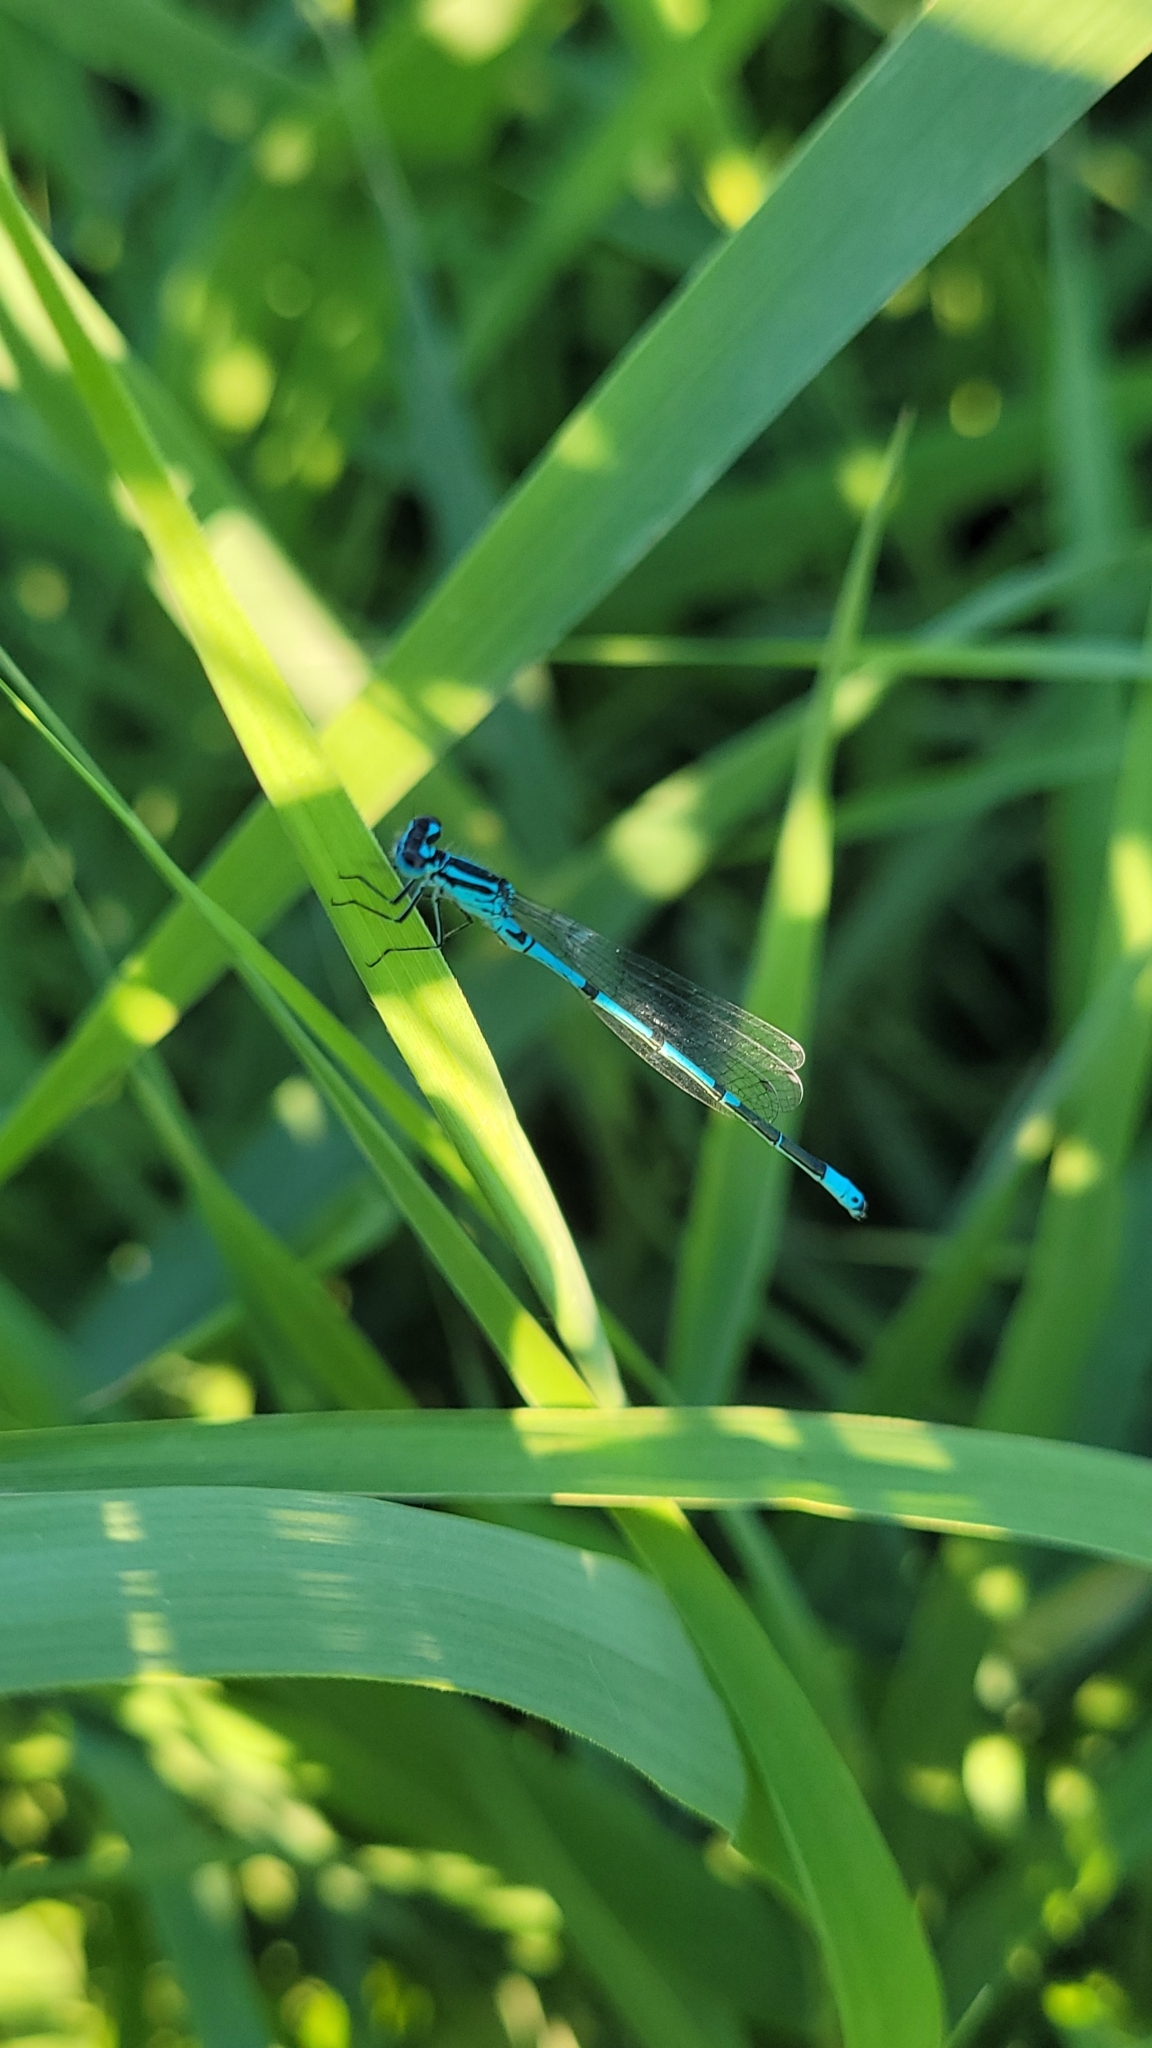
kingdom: Animalia
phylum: Arthropoda
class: Insecta
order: Odonata
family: Coenagrionidae
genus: Coenagrion
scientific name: Coenagrion puella
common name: Azure damselfly
